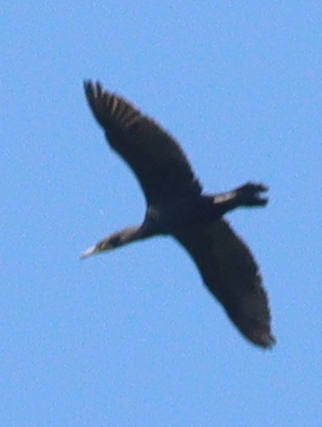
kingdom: Animalia
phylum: Chordata
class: Aves
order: Suliformes
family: Phalacrocoracidae
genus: Phalacrocorax
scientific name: Phalacrocorax carbo
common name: Great cormorant
